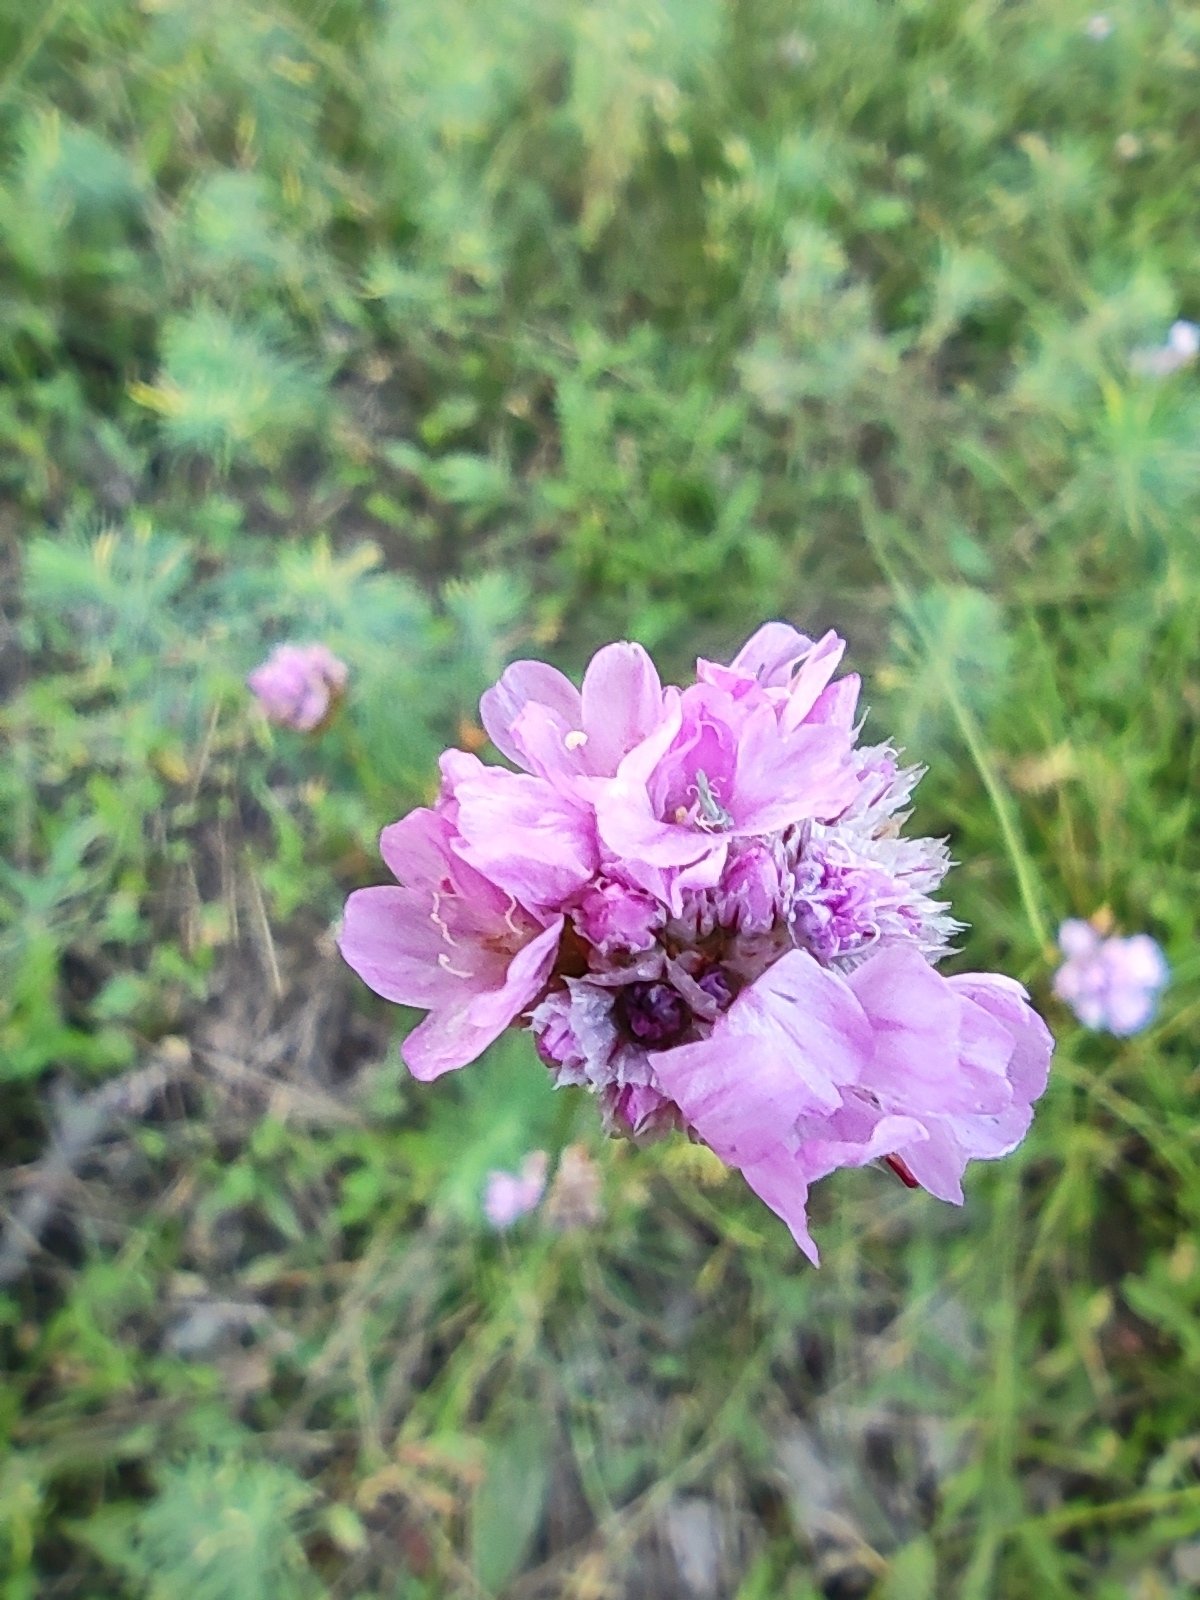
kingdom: Plantae
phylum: Tracheophyta
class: Magnoliopsida
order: Caryophyllales
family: Plumbaginaceae
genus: Armeria
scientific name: Armeria maritima
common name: Thrift
